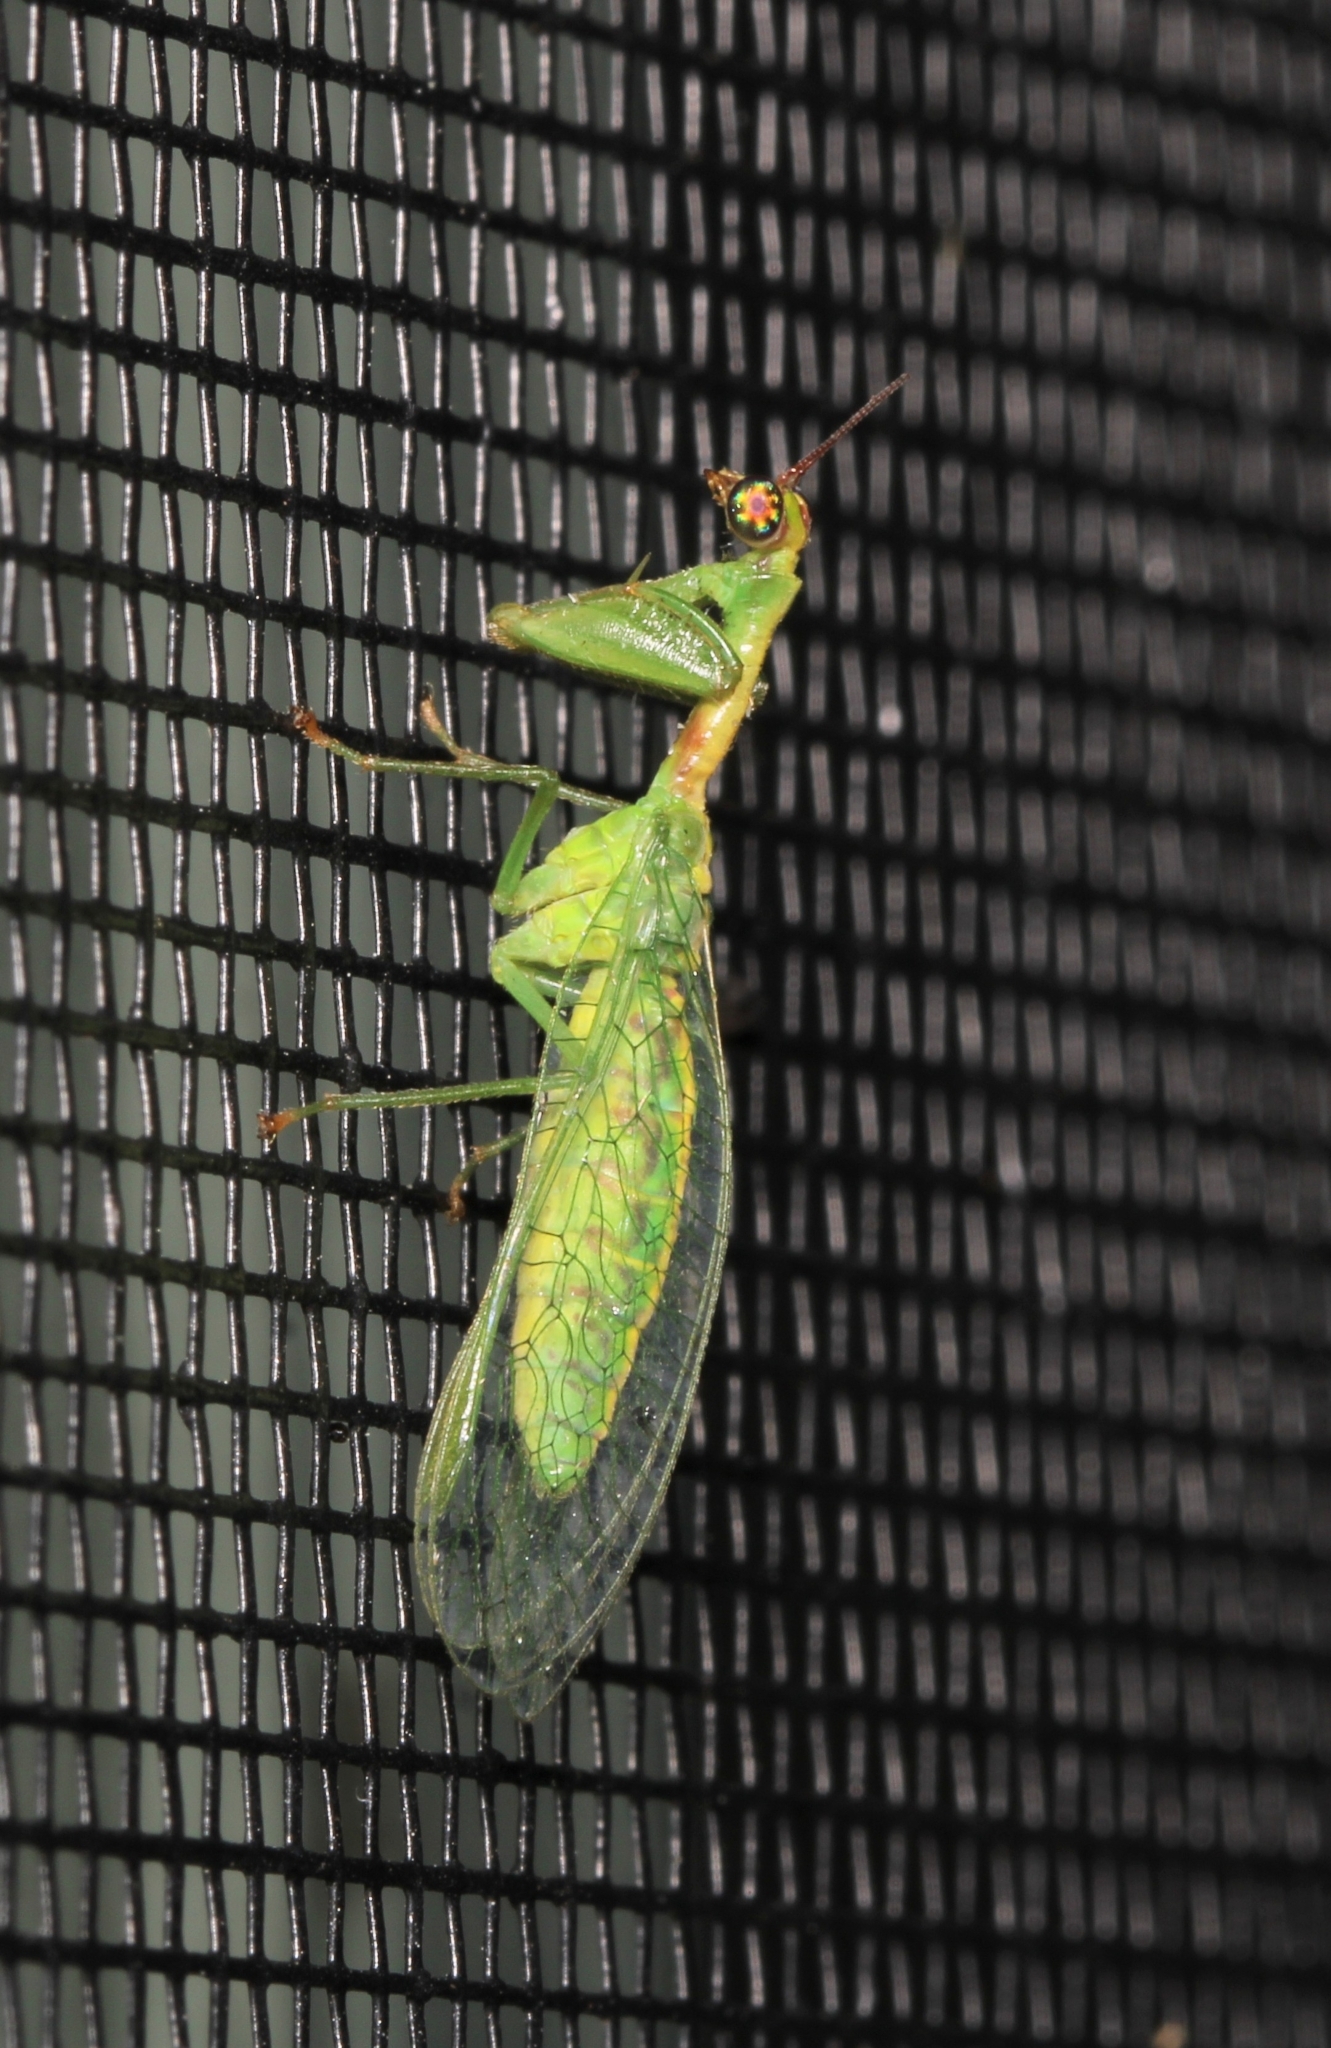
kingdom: Animalia
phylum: Arthropoda
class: Insecta
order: Neuroptera
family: Mantispidae
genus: Zeugomantispa
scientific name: Zeugomantispa minuta
